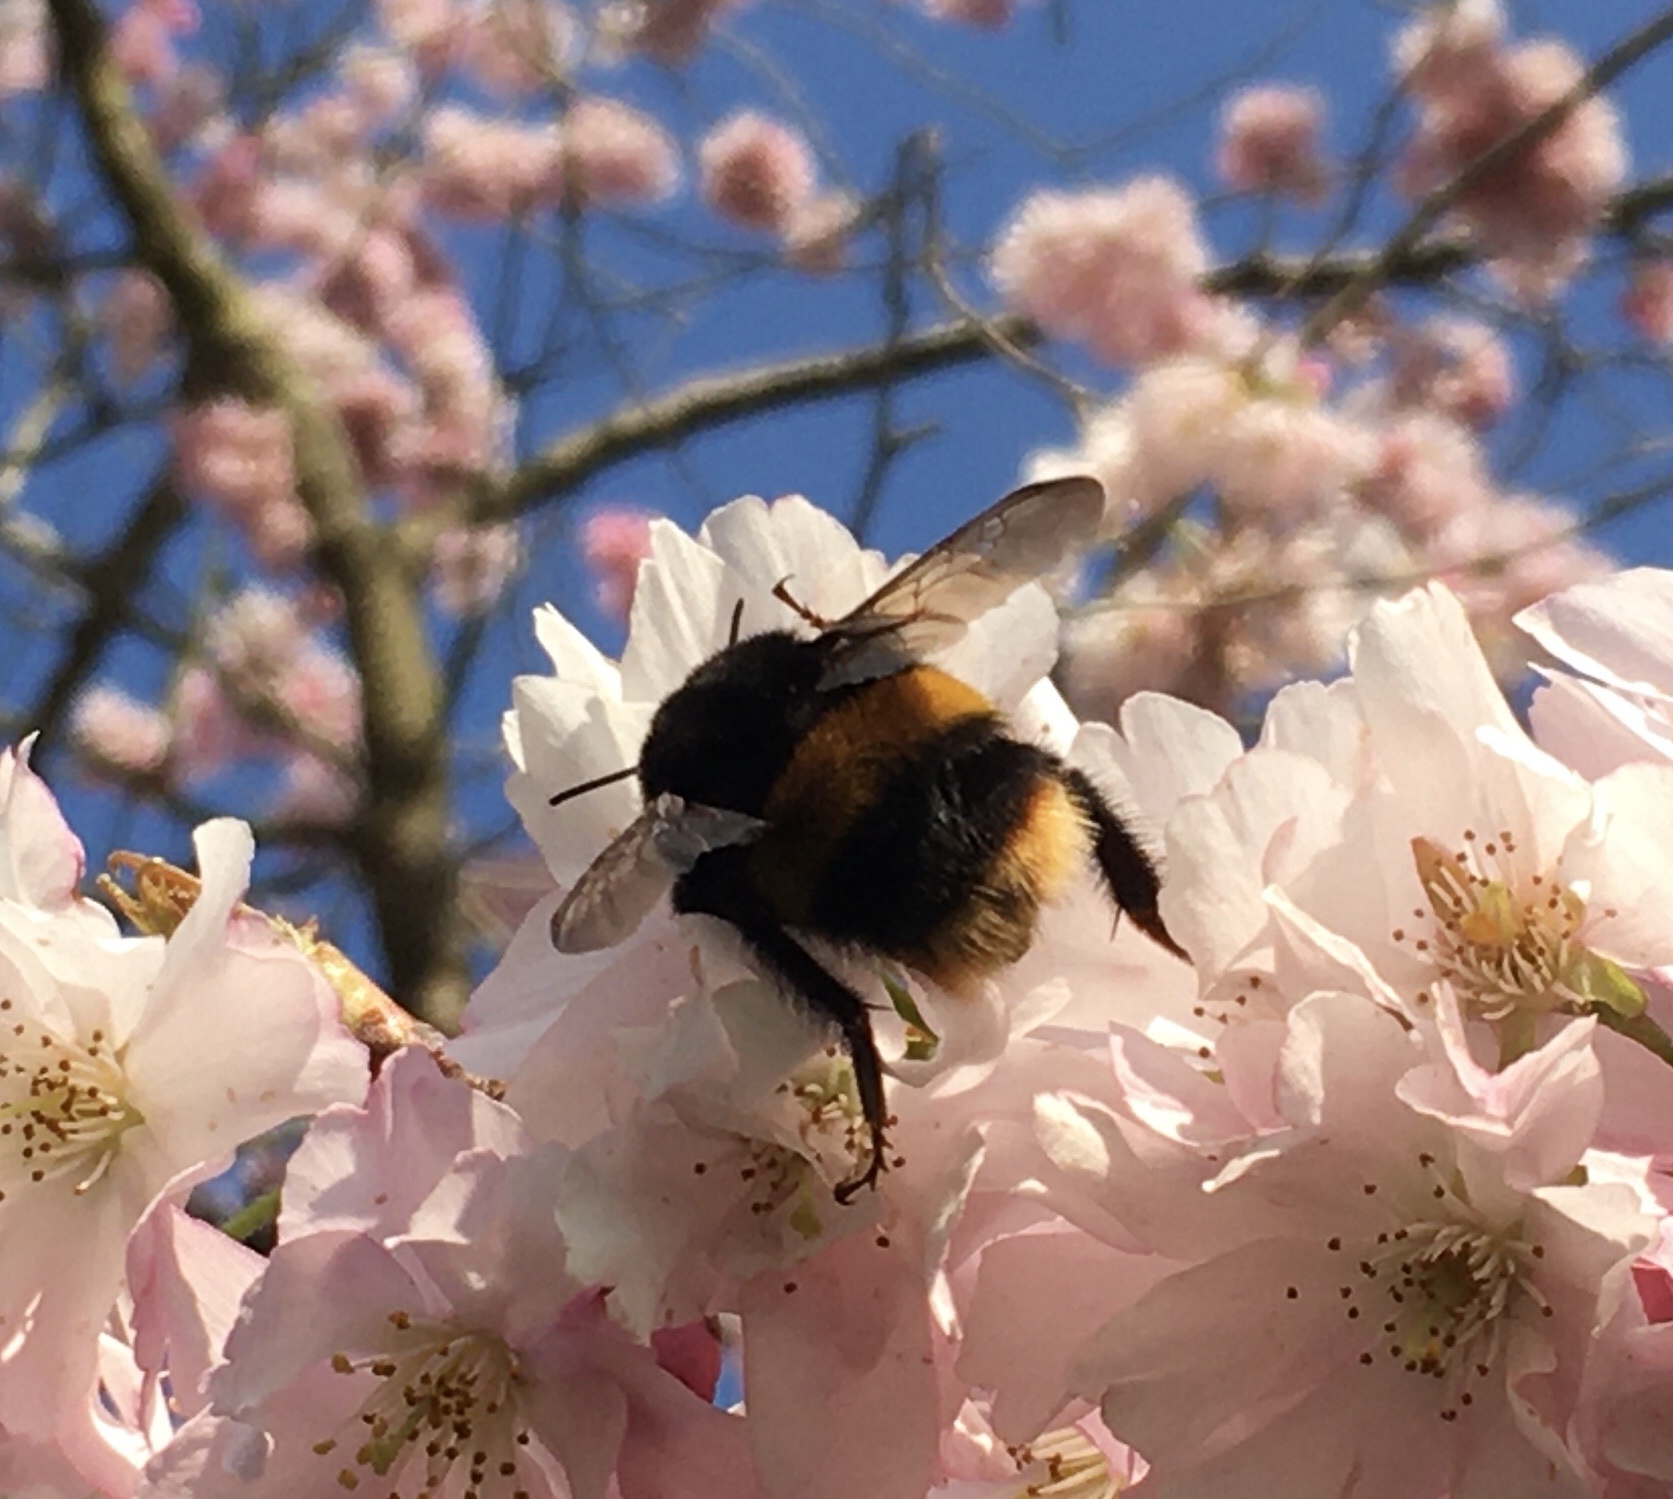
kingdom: Animalia
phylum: Arthropoda
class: Insecta
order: Hymenoptera
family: Apidae
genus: Bombus
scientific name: Bombus terrestris
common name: Buff-tailed bumblebee
